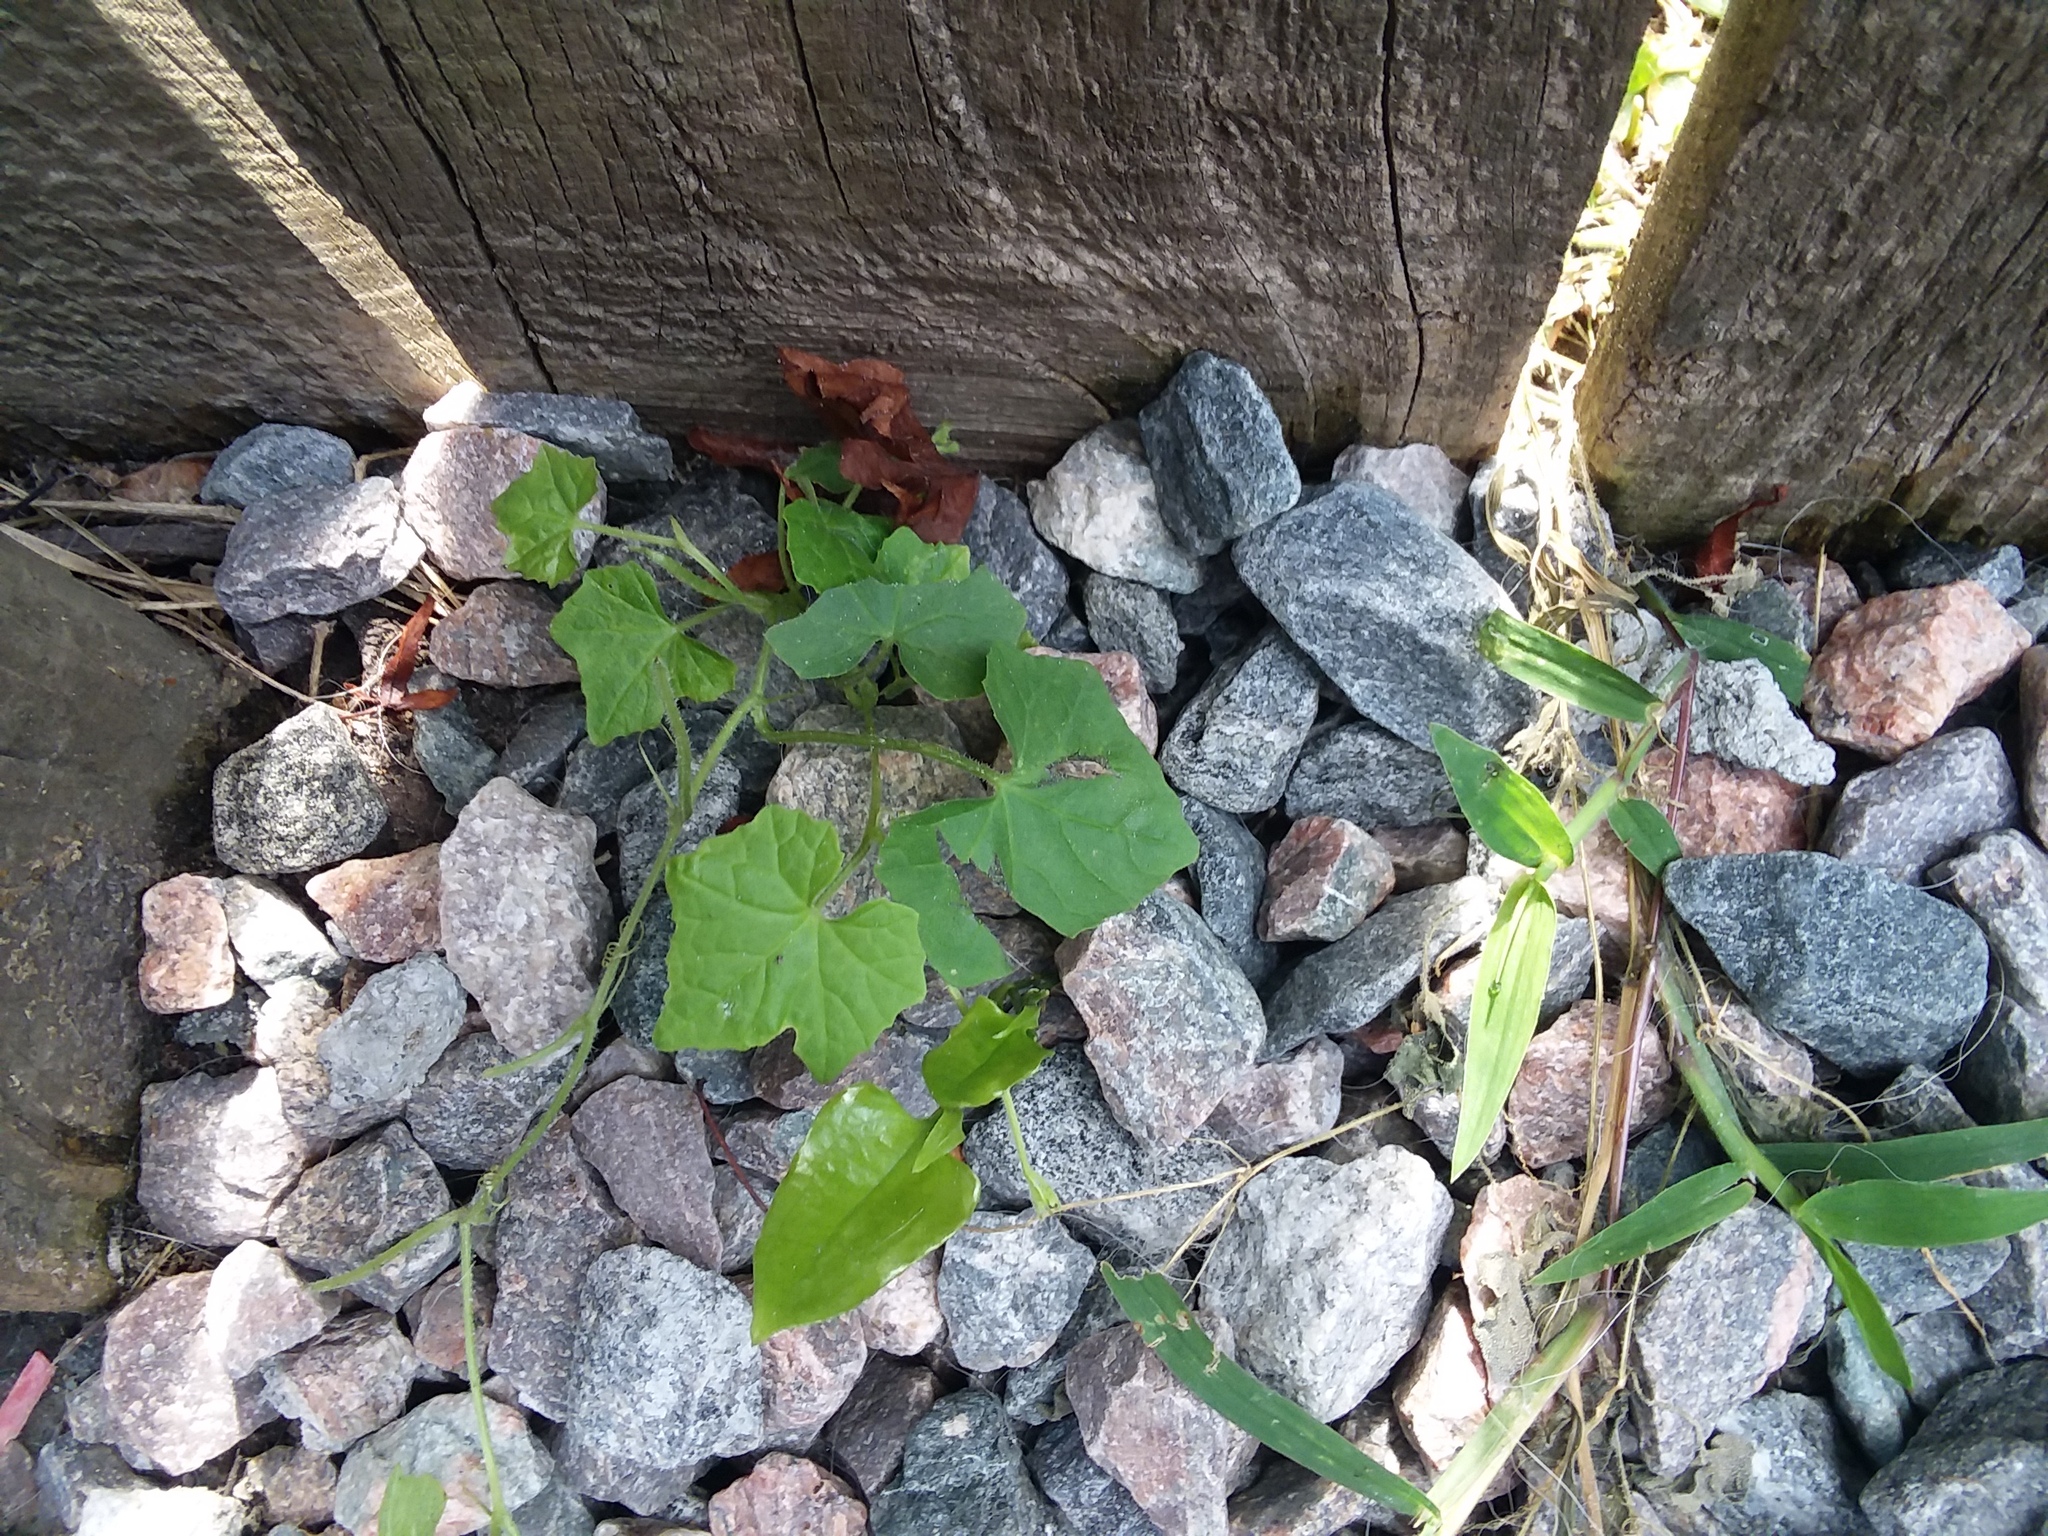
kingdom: Plantae
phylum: Tracheophyta
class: Magnoliopsida
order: Cucurbitales
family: Cucurbitaceae
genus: Melothria
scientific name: Melothria pendula
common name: Creeping-cucumber
